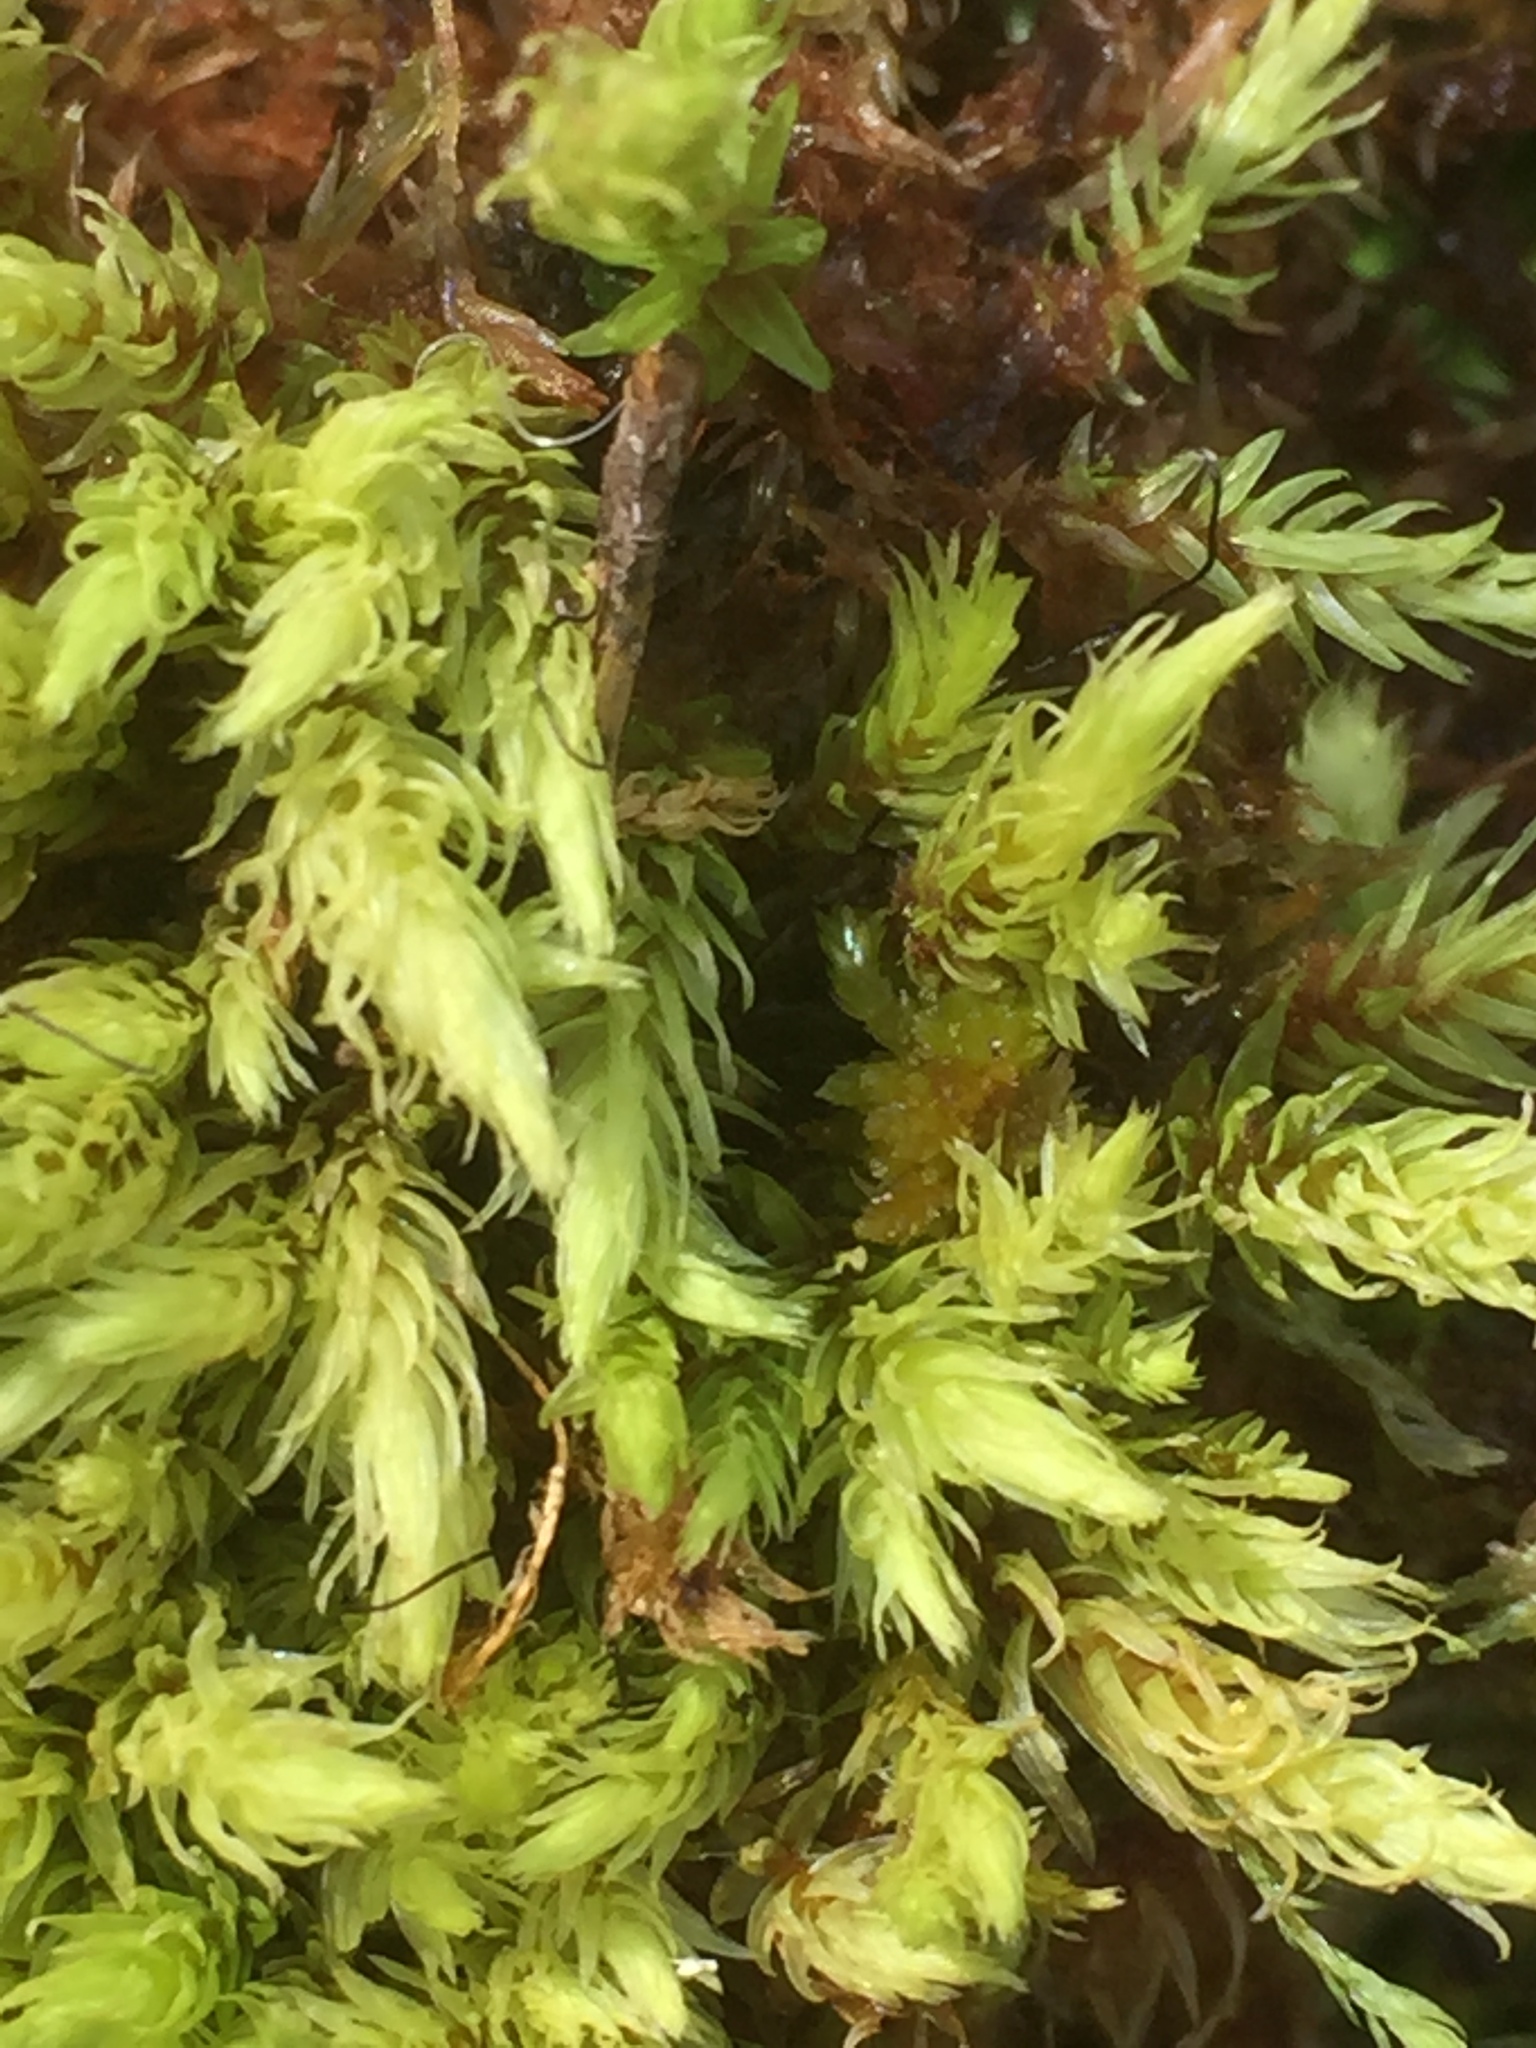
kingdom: Plantae
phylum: Bryophyta
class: Bryopsida
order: Aulacomniales
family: Aulacomniaceae
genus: Aulacomnium
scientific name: Aulacomnium palustre
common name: Bog groove-moss
